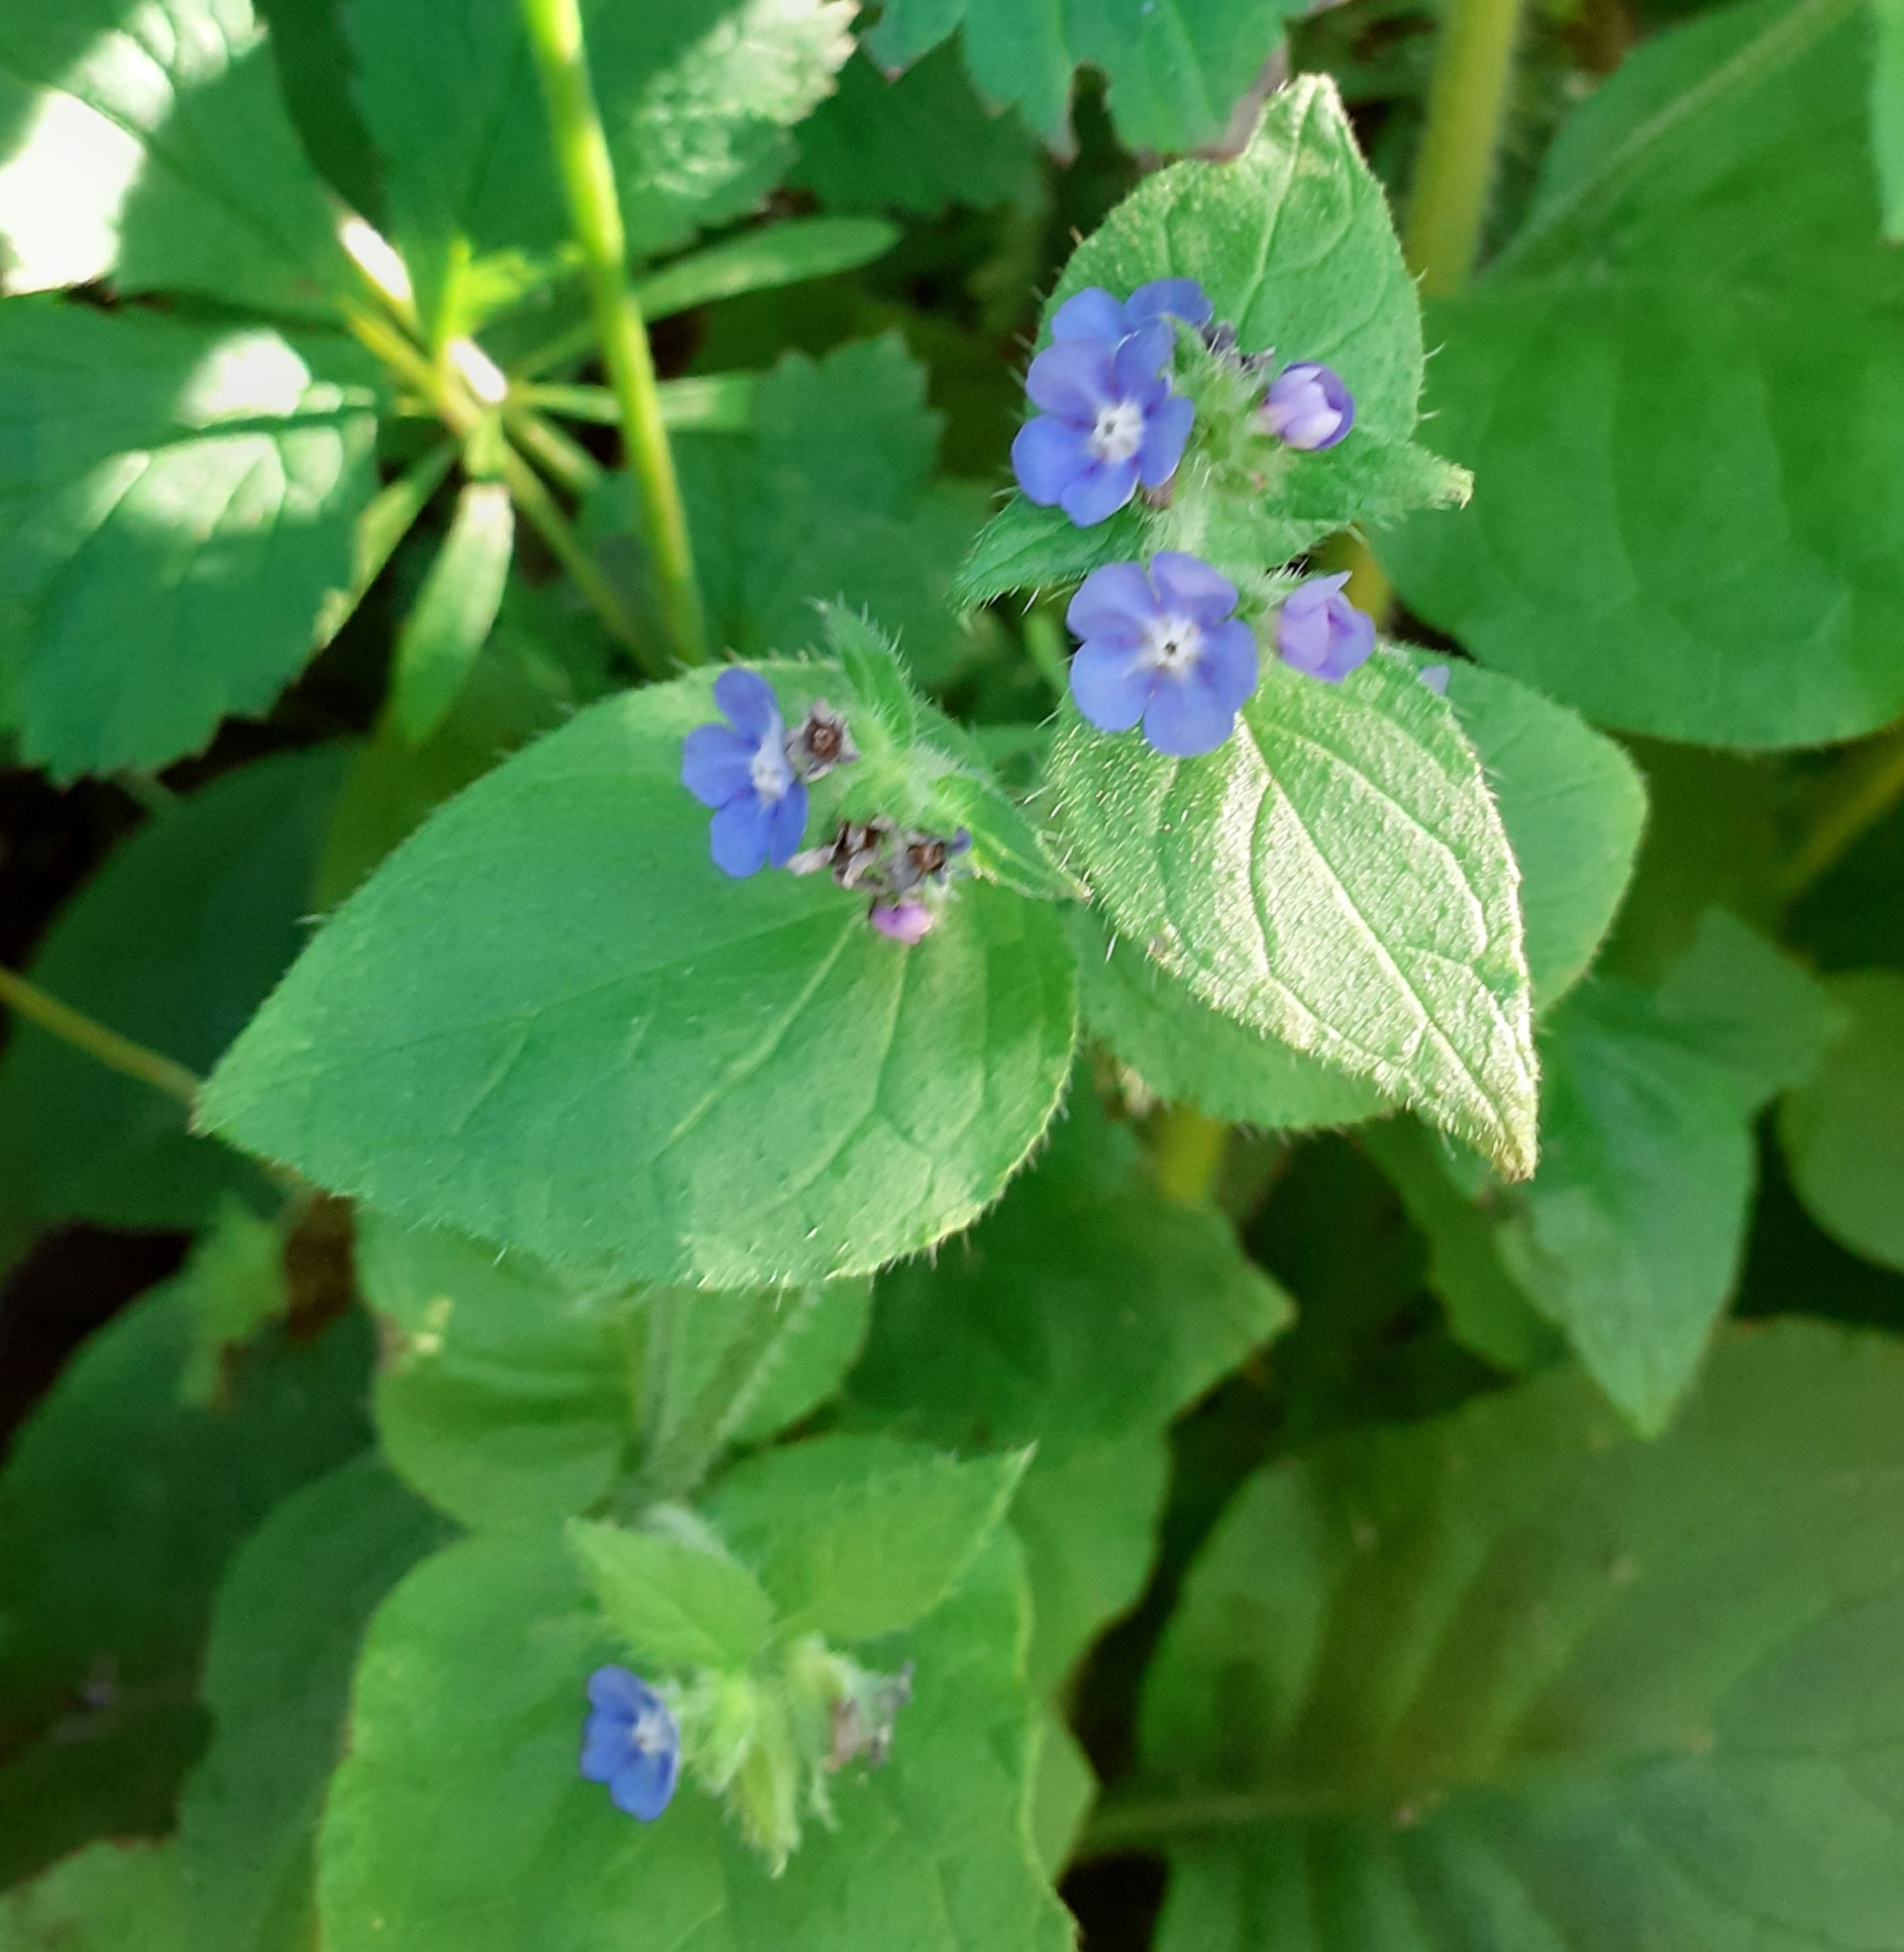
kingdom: Plantae
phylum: Tracheophyta
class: Magnoliopsida
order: Boraginales
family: Boraginaceae
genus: Pentaglottis
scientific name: Pentaglottis sempervirens
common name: Green alkanet
